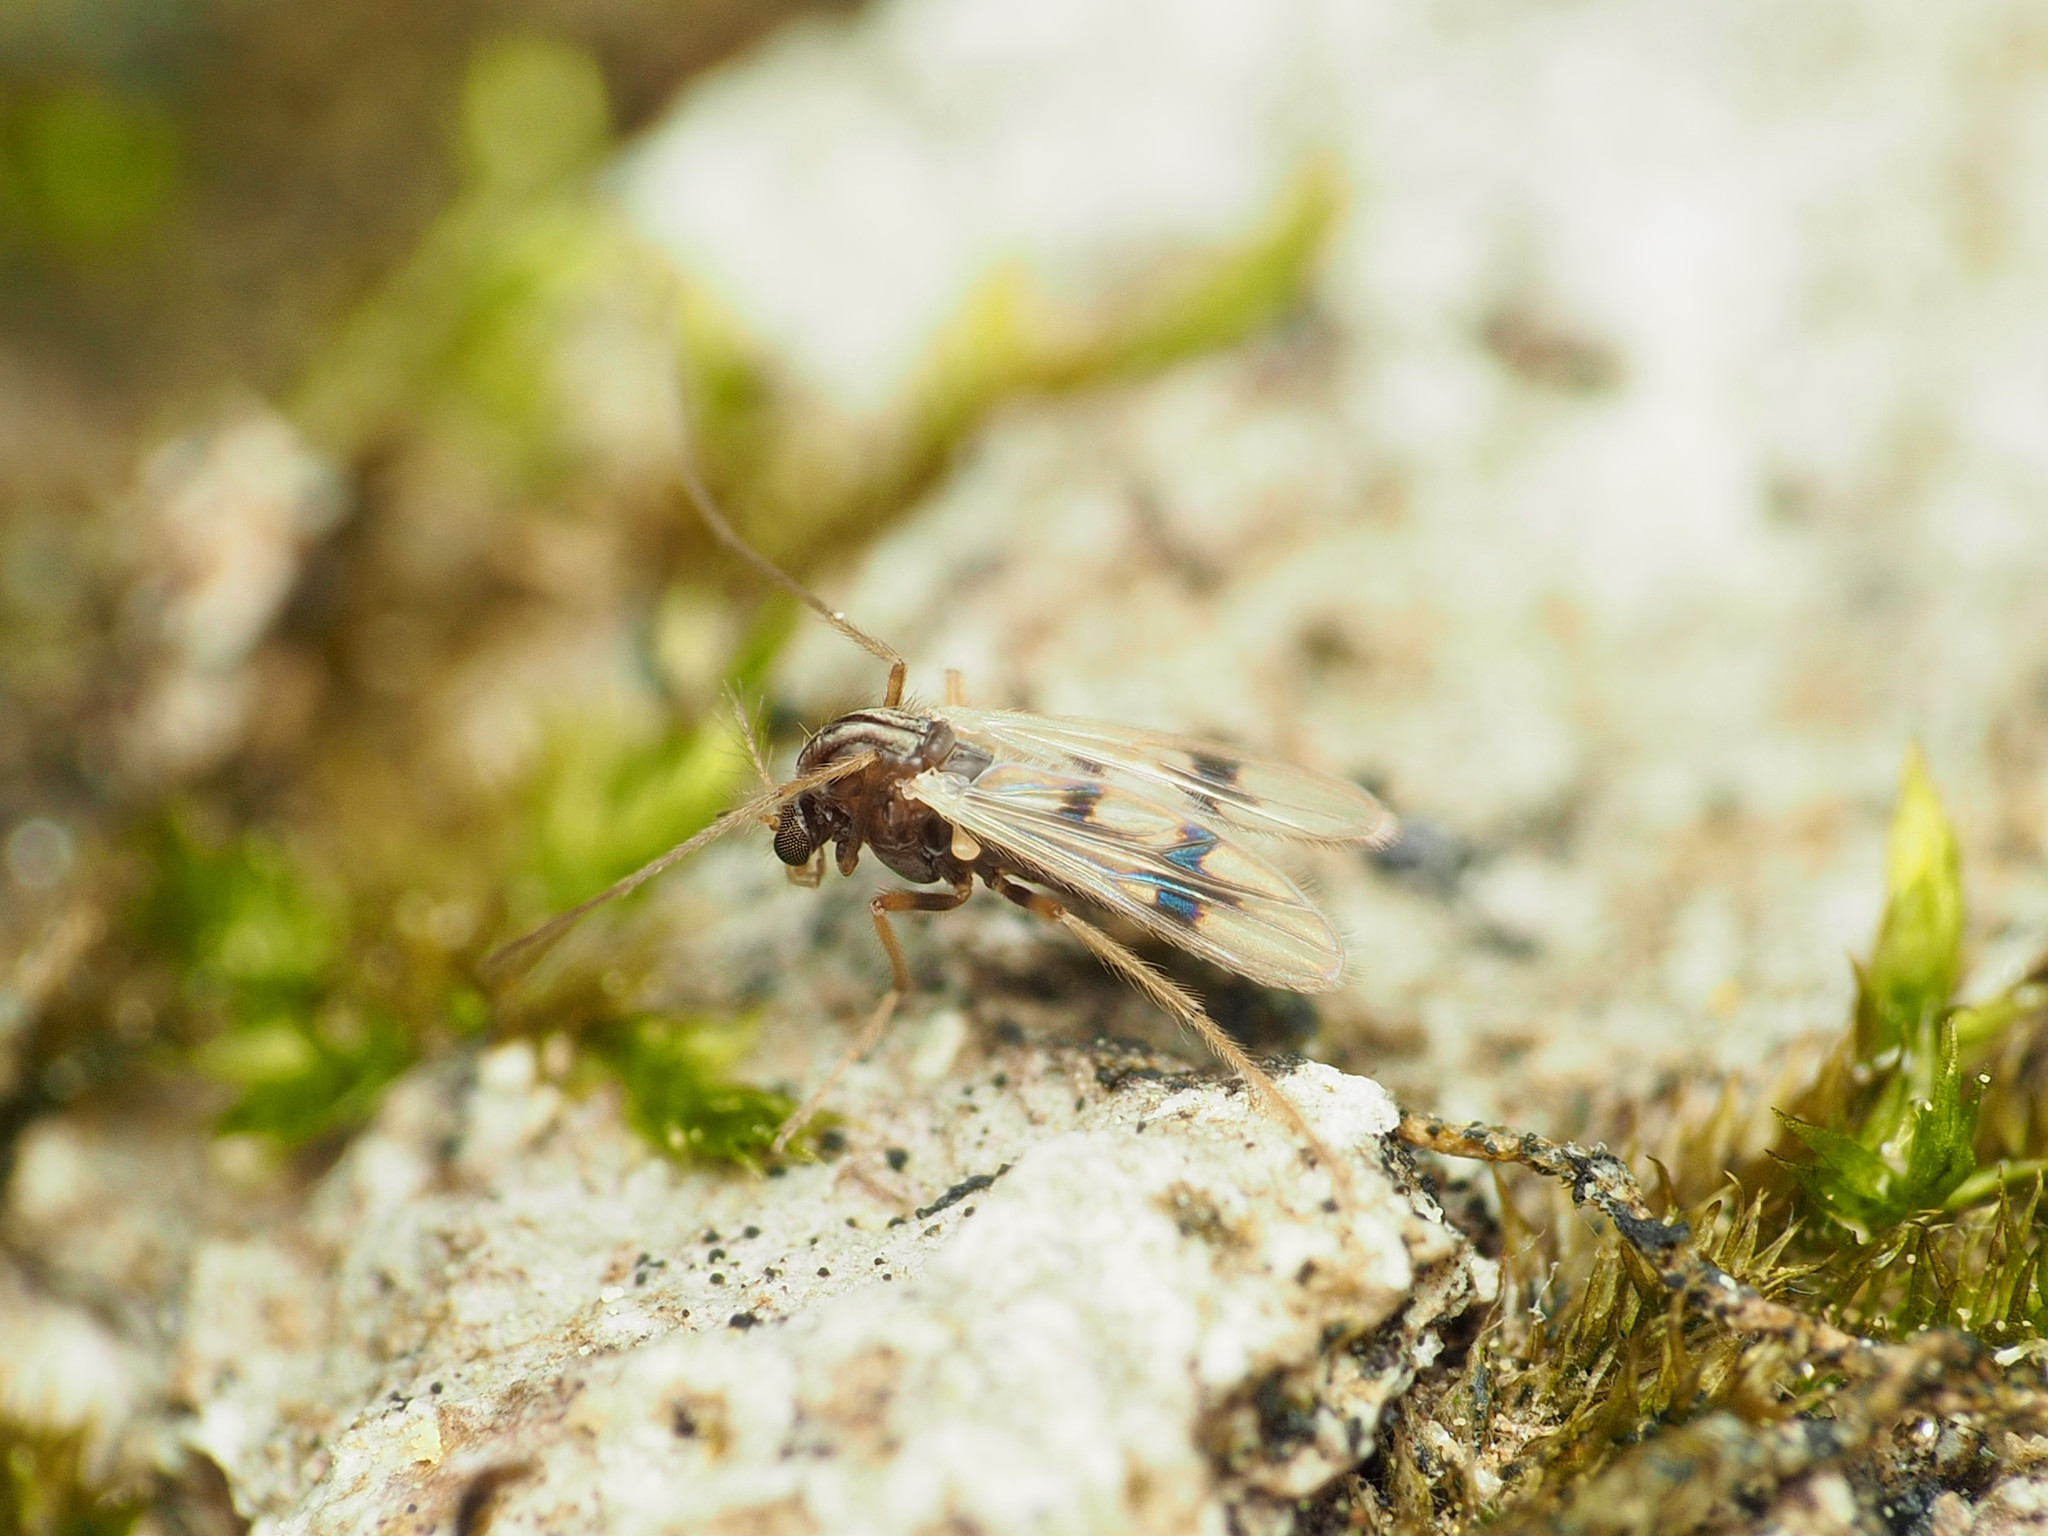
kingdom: Animalia
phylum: Arthropoda
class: Insecta
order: Diptera
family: Chironomidae
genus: Polypedilum
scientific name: Polypedilum scalaenum
